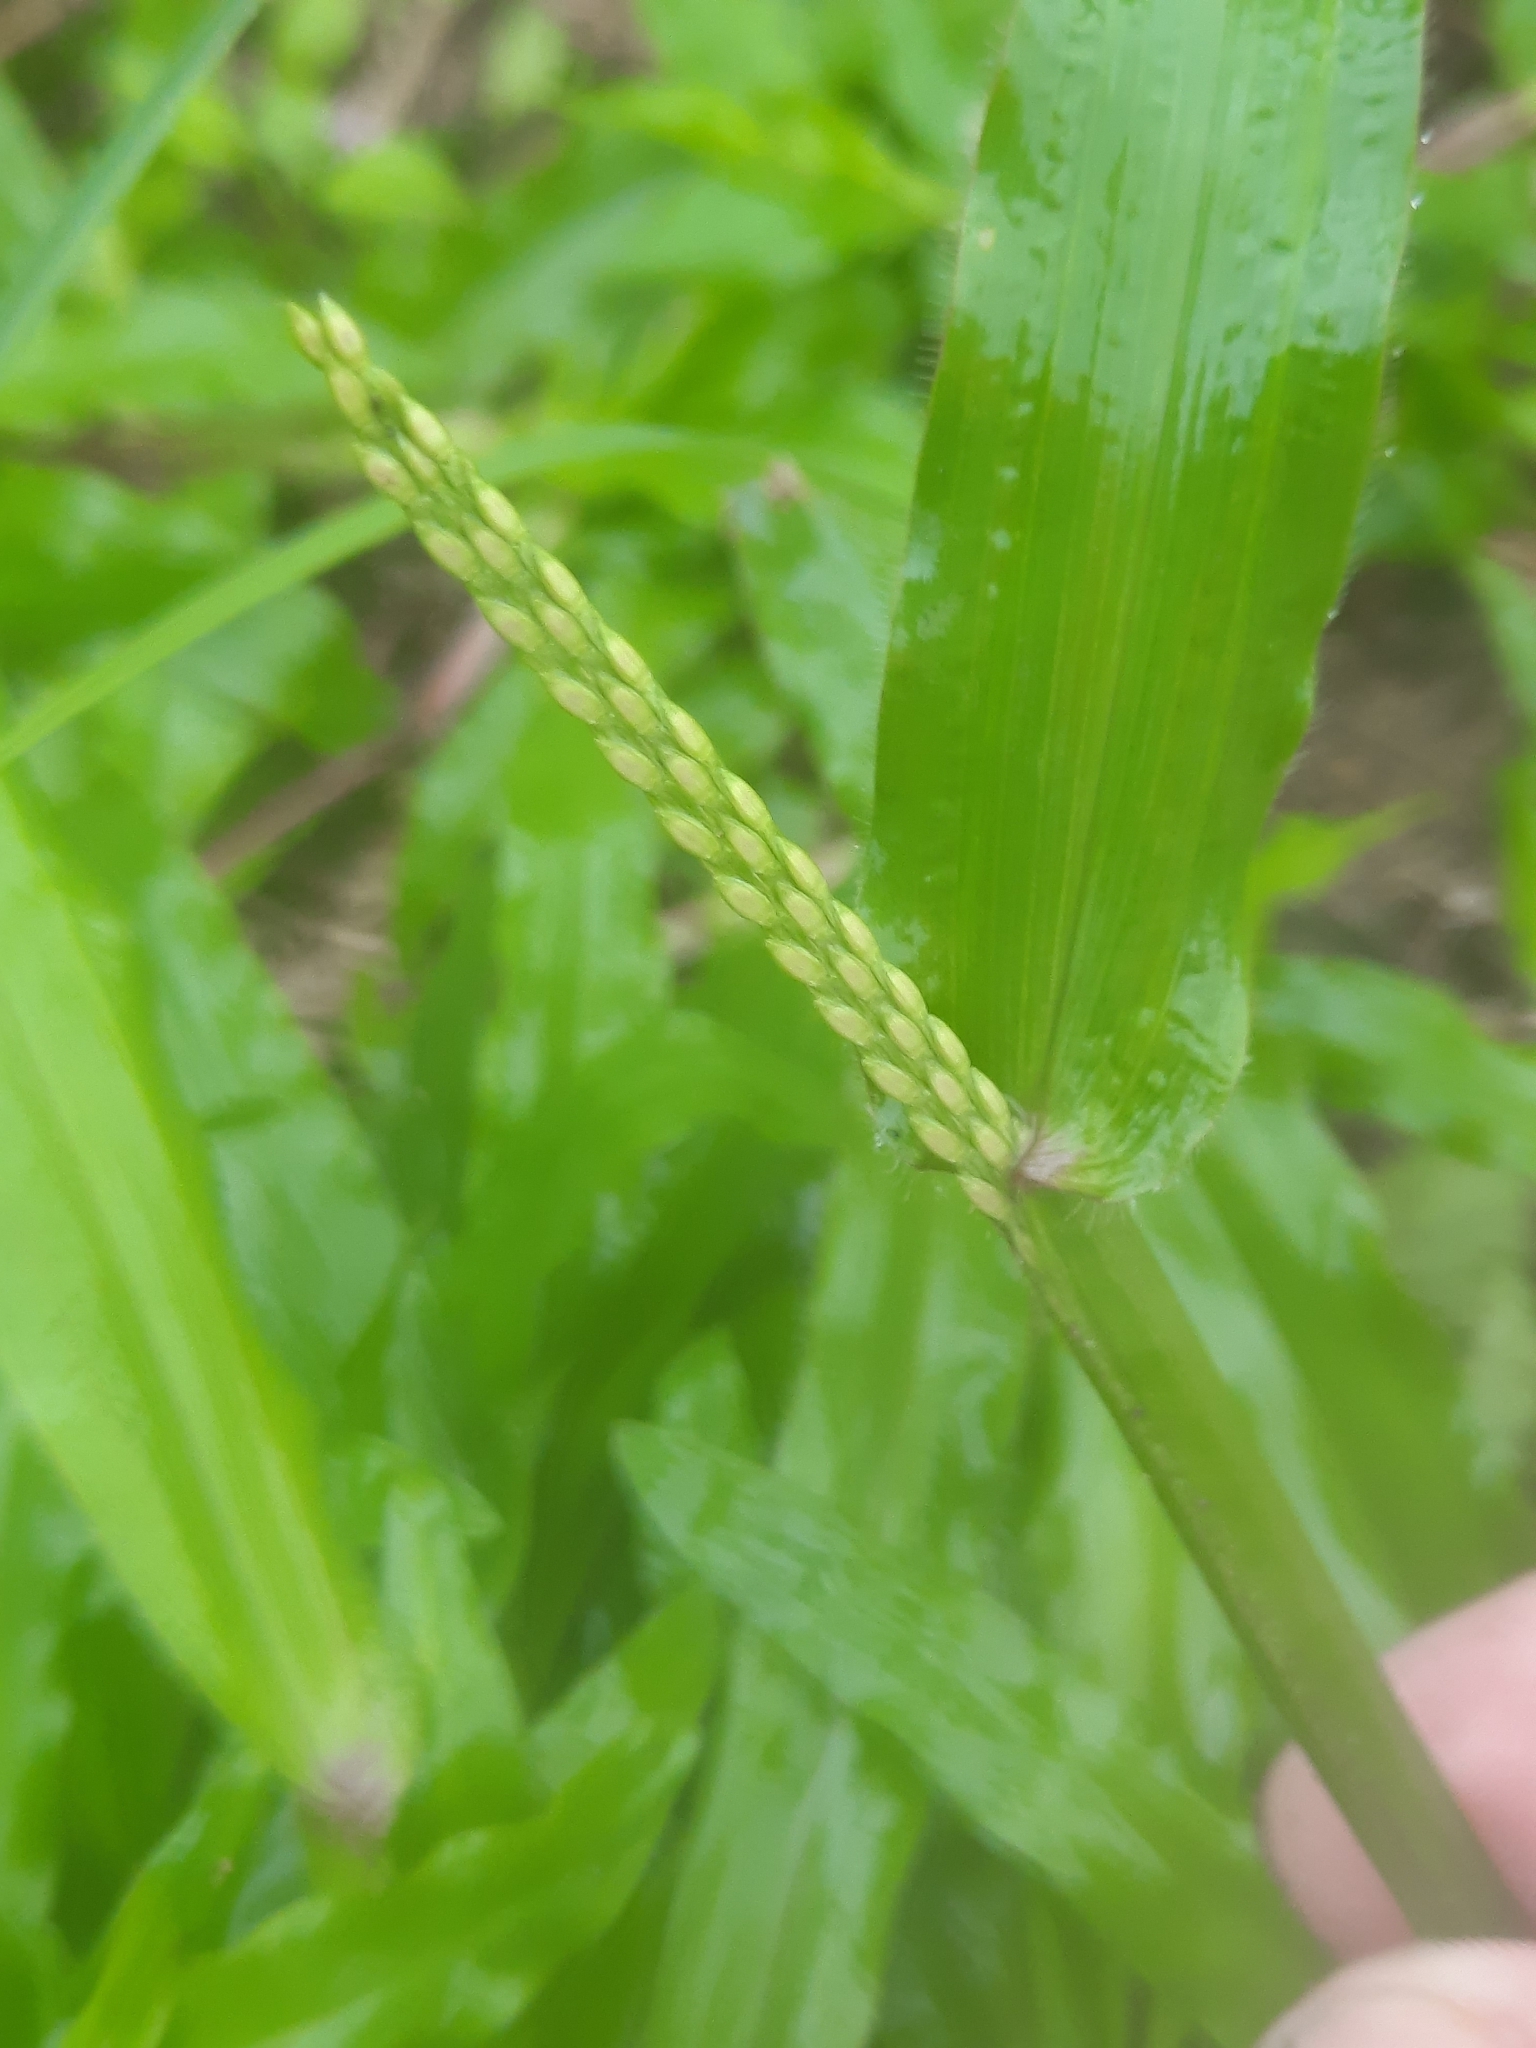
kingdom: Plantae
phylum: Tracheophyta
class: Liliopsida
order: Poales
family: Poaceae
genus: Axonopus
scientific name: Axonopus compressus
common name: American carpet grass
